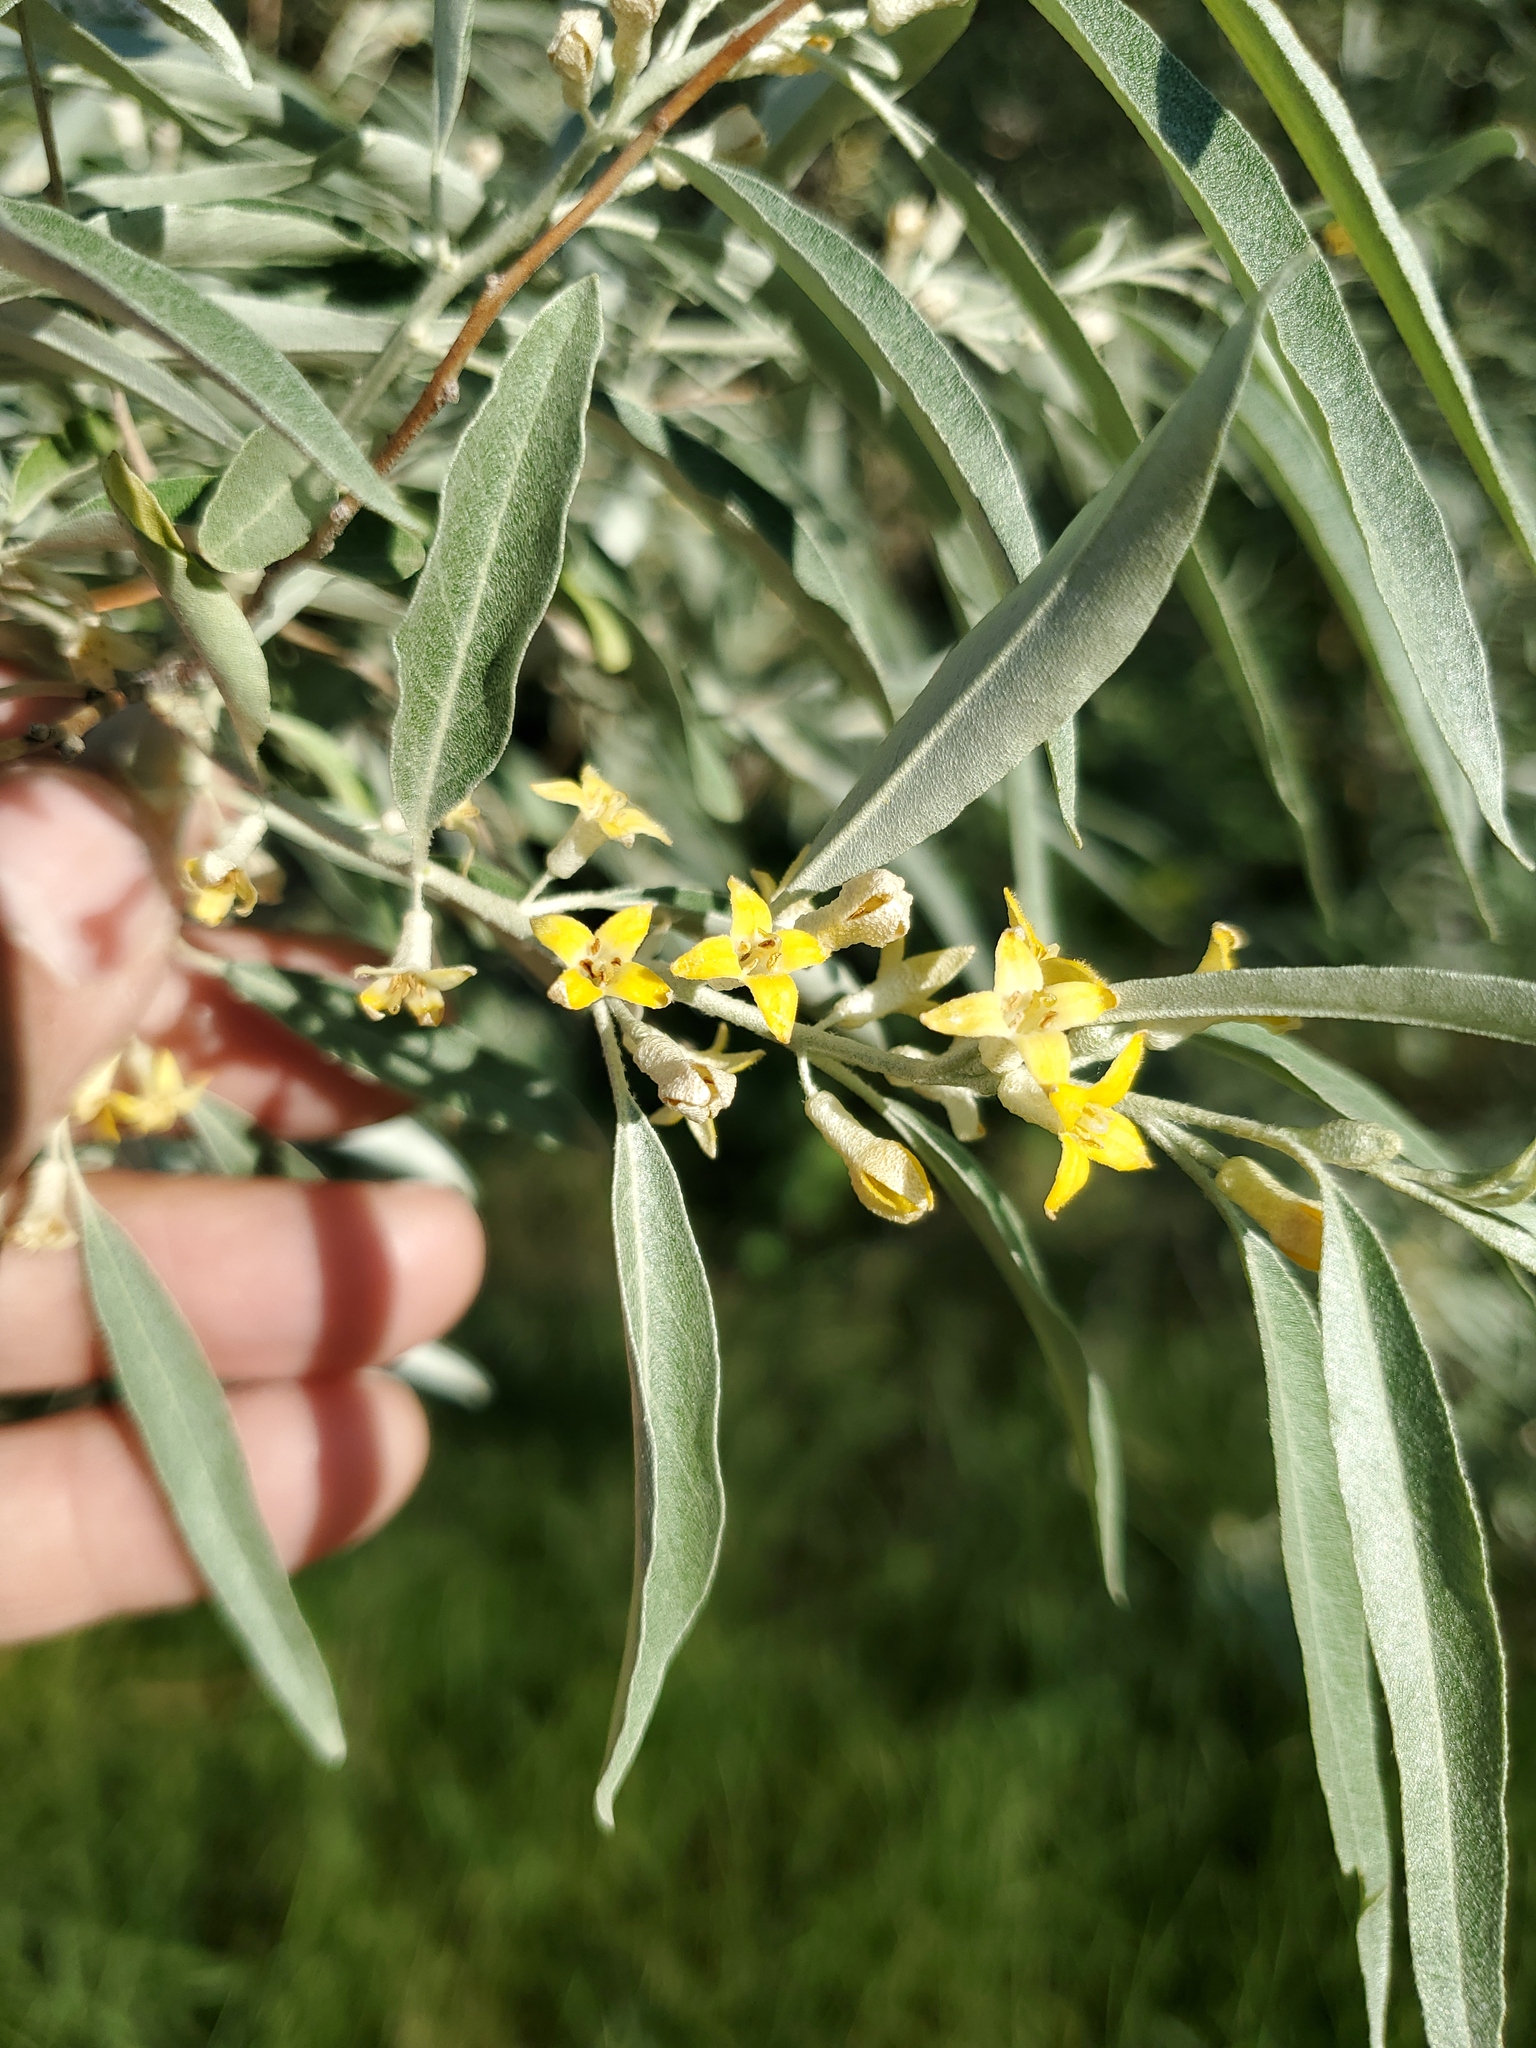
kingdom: Plantae
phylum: Tracheophyta
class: Magnoliopsida
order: Rosales
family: Elaeagnaceae
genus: Elaeagnus
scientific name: Elaeagnus angustifolia
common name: Russian olive
